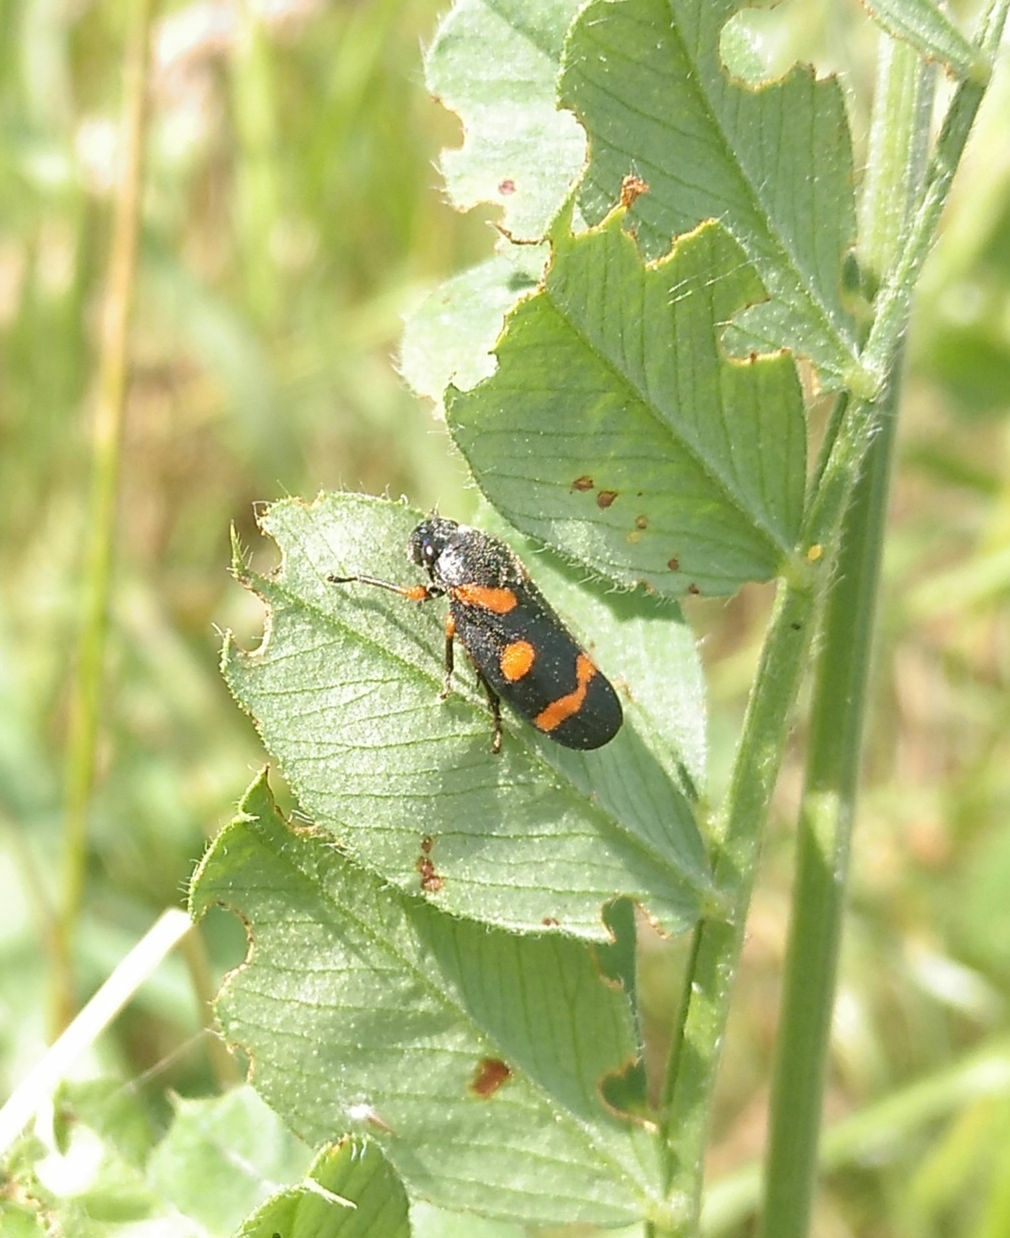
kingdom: Animalia
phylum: Arthropoda
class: Insecta
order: Hemiptera
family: Cercopidae
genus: Cercopis
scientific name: Cercopis intermedia
